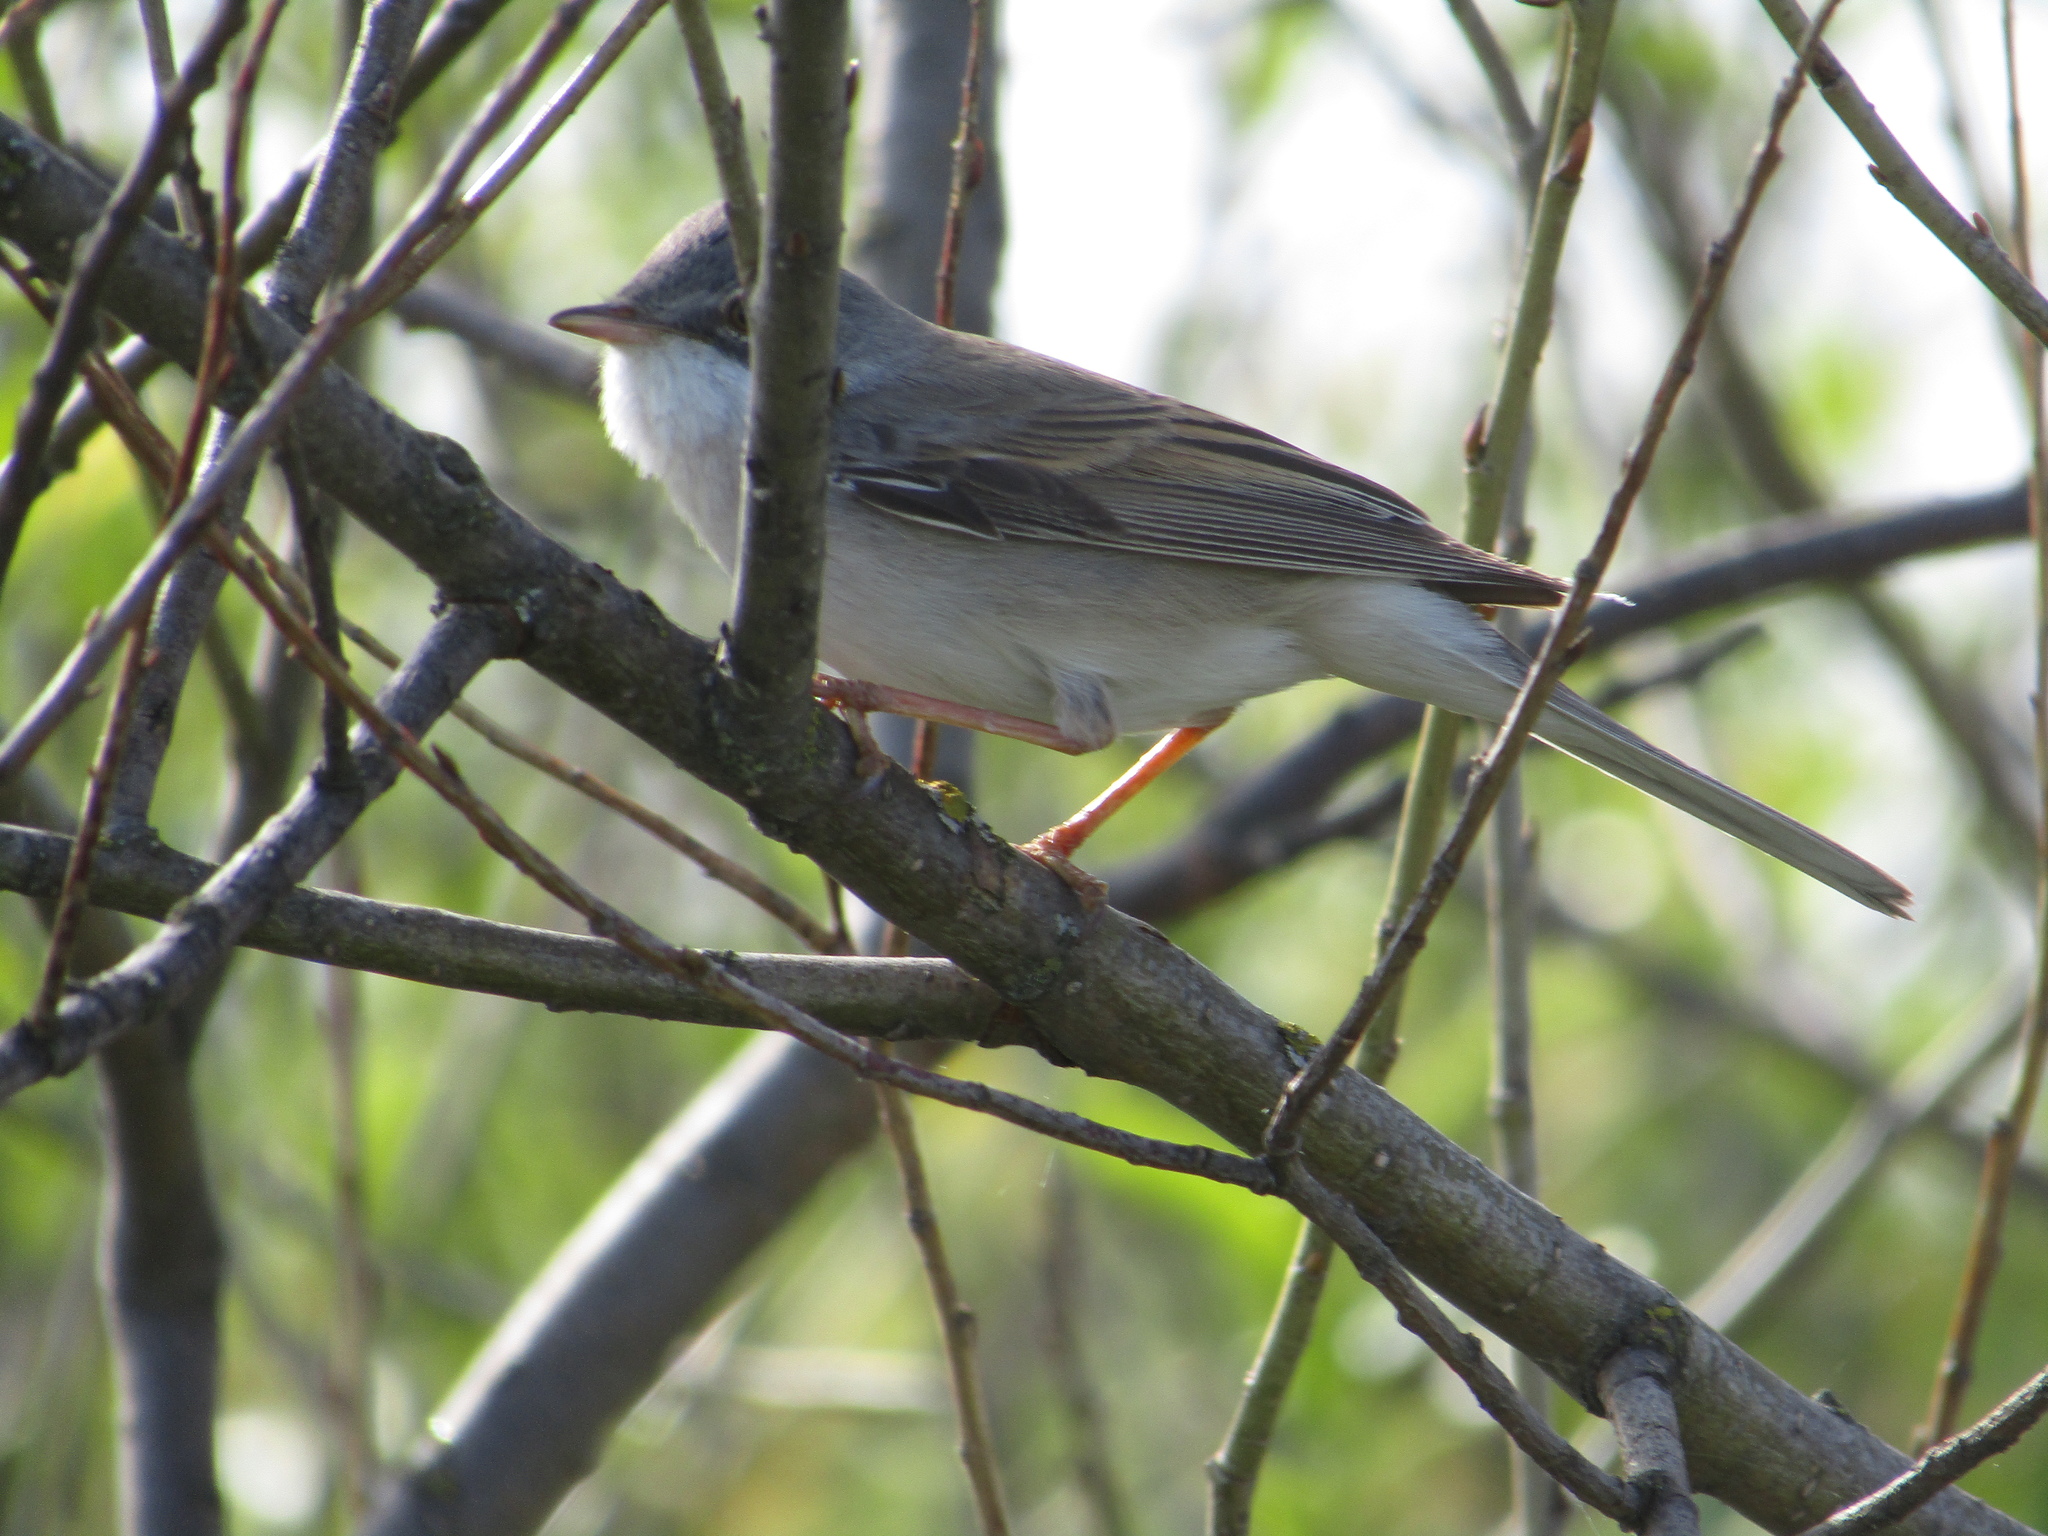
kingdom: Animalia
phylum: Chordata
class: Aves
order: Passeriformes
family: Sylviidae
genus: Sylvia
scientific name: Sylvia communis
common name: Common whitethroat
